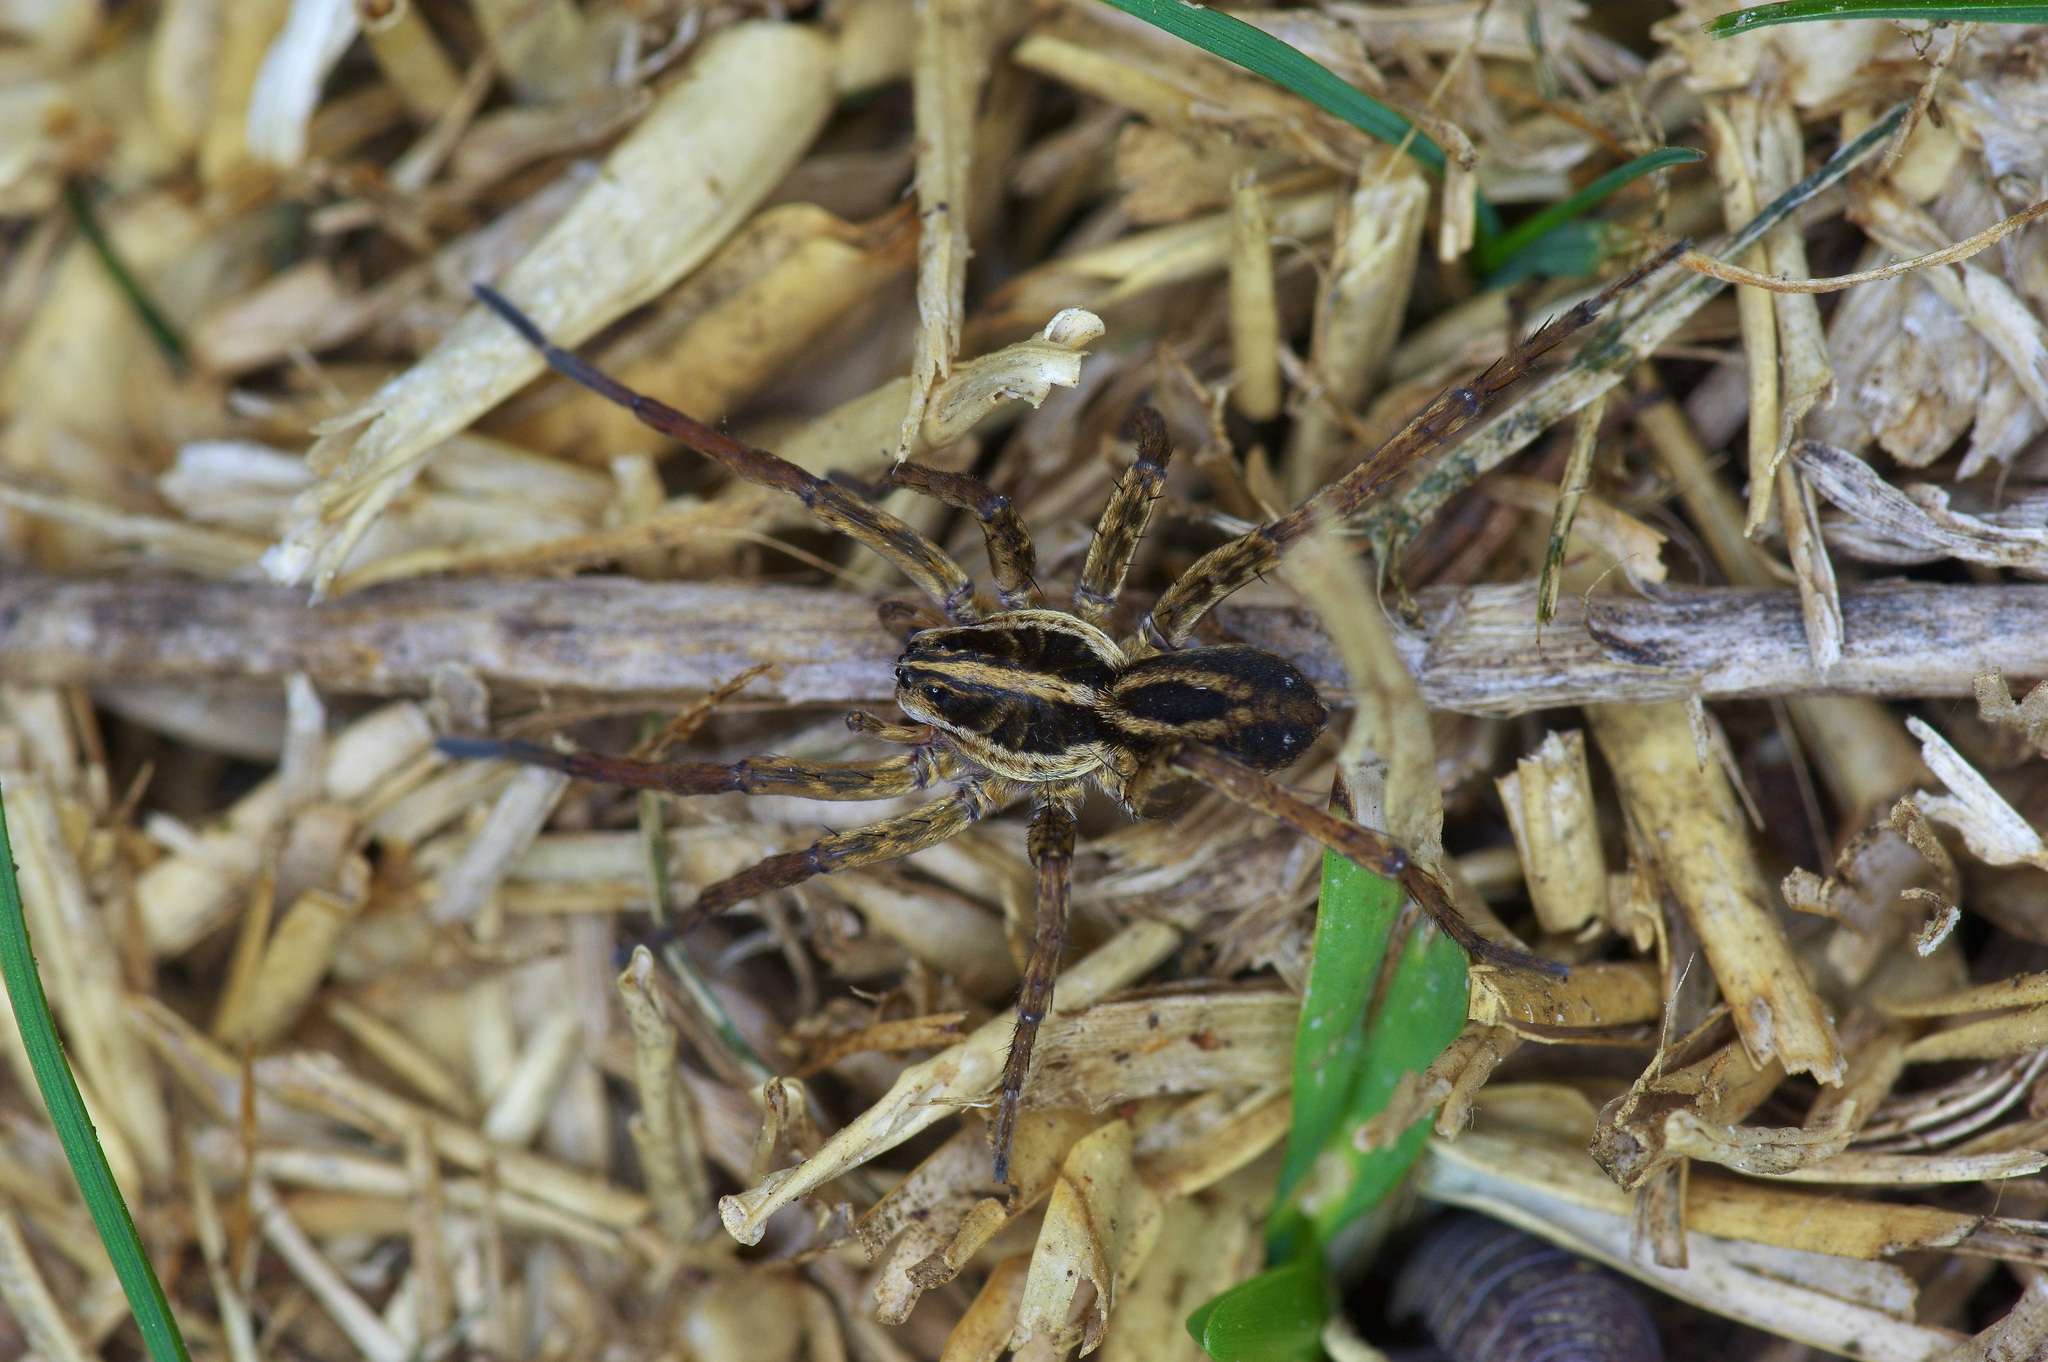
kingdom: Animalia
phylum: Arthropoda
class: Arachnida
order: Araneae
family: Lycosidae
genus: Tigrosa
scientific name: Tigrosa annexa
